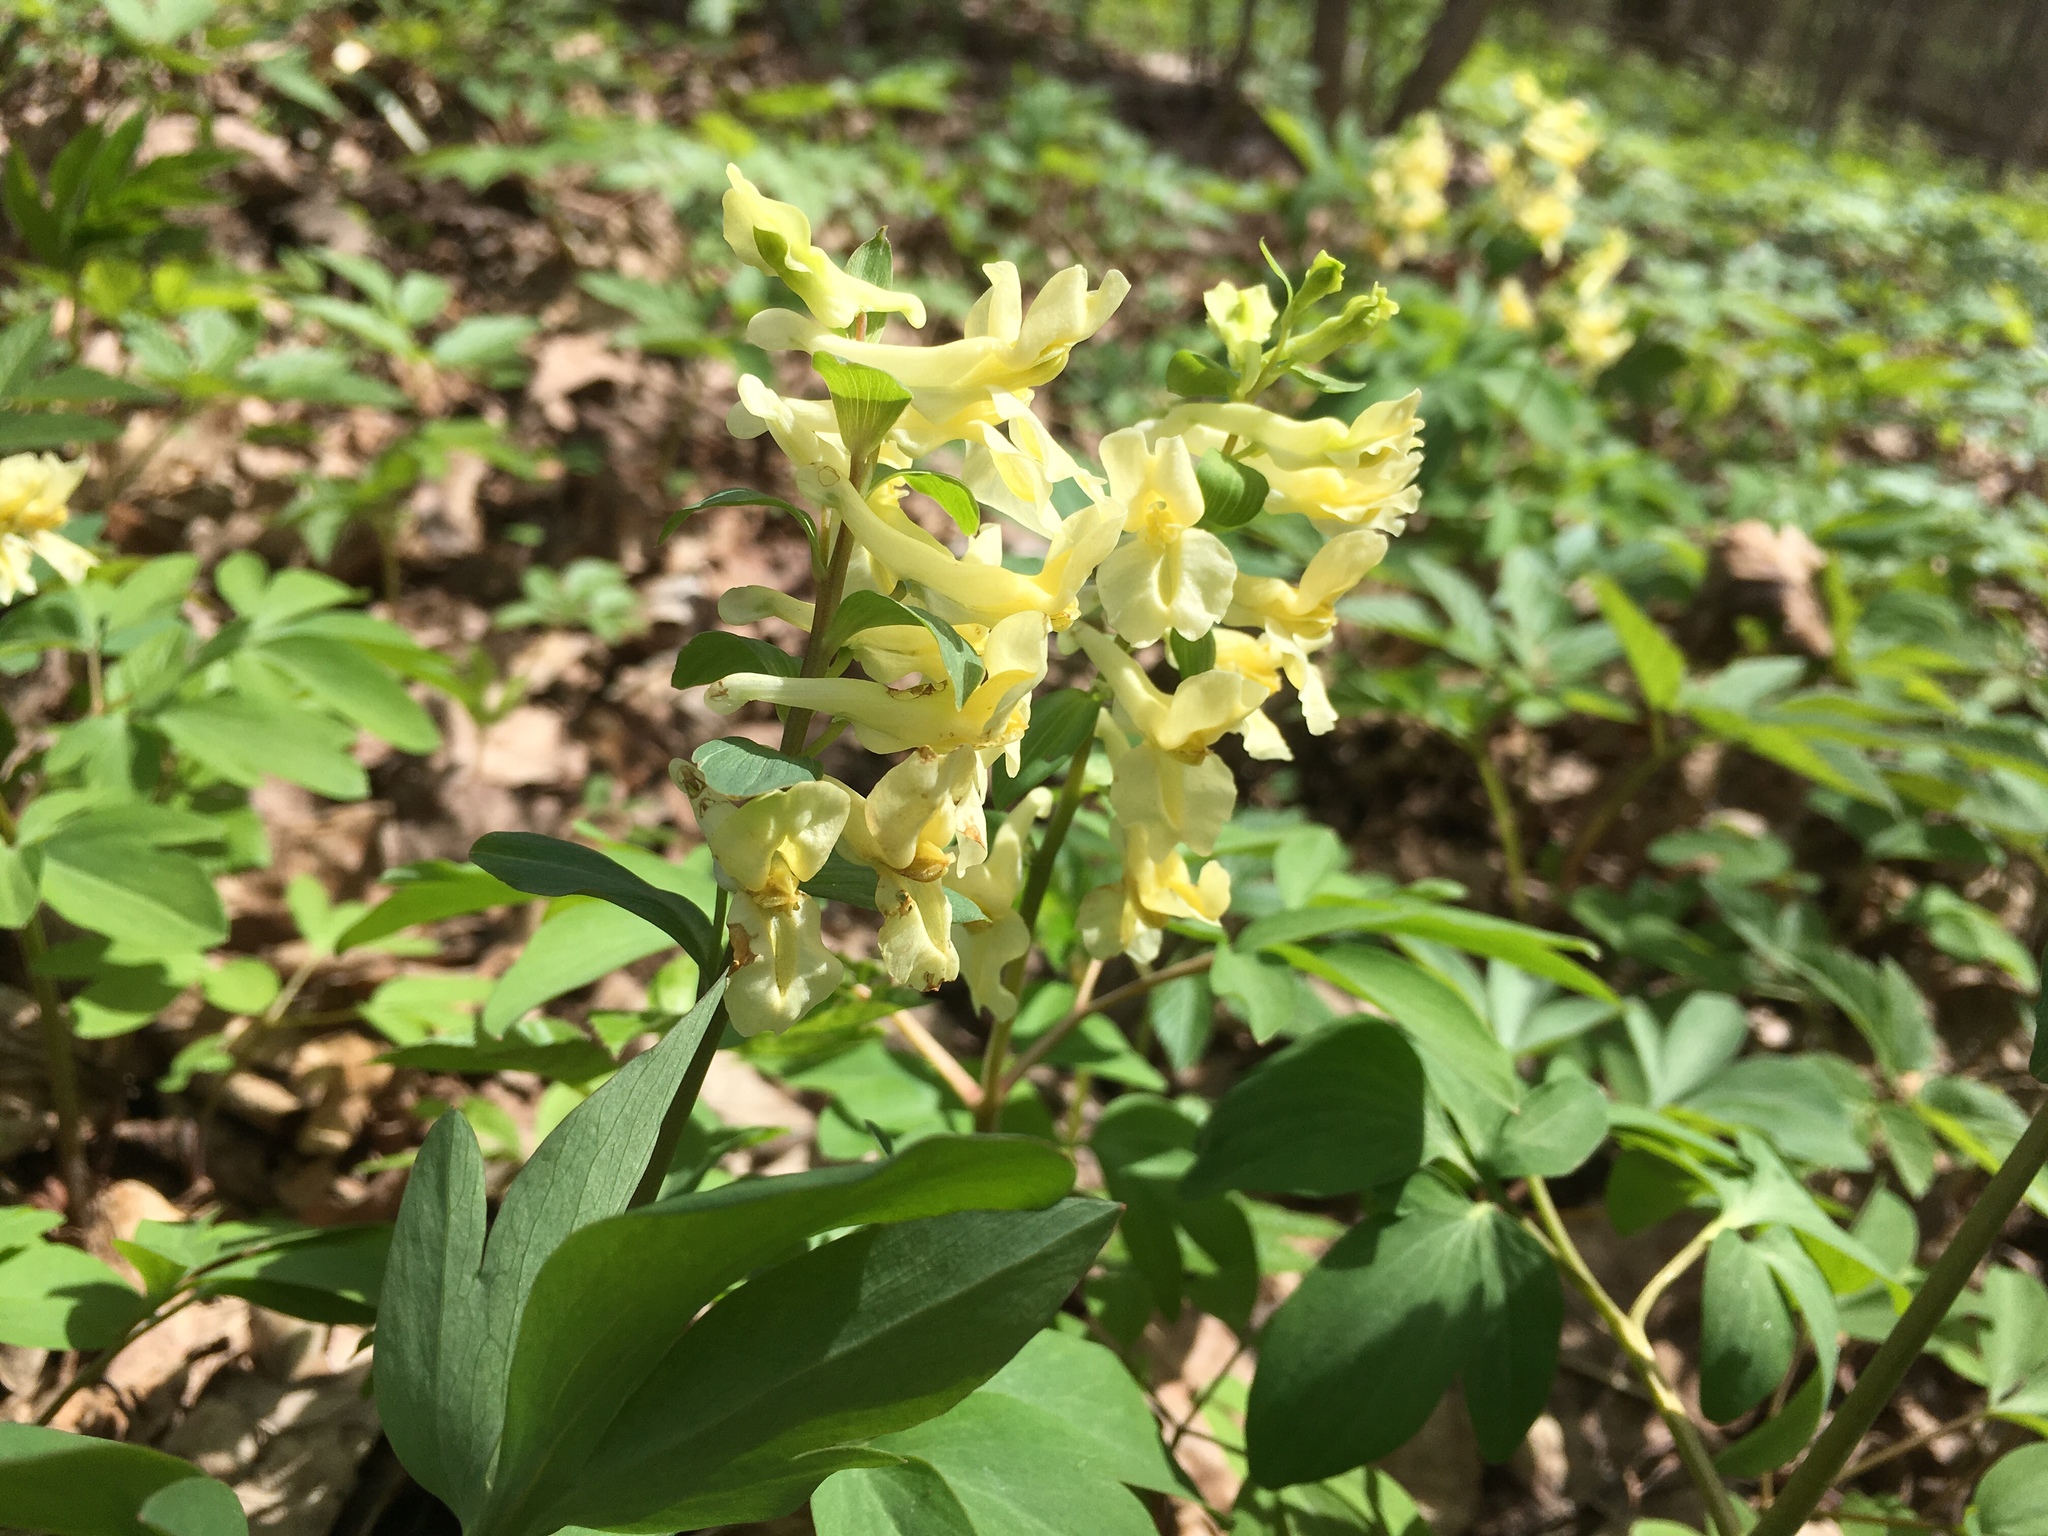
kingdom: Plantae
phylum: Tracheophyta
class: Magnoliopsida
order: Ranunculales
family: Papaveraceae
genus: Corydalis
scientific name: Corydalis cava
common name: Hollowroot
